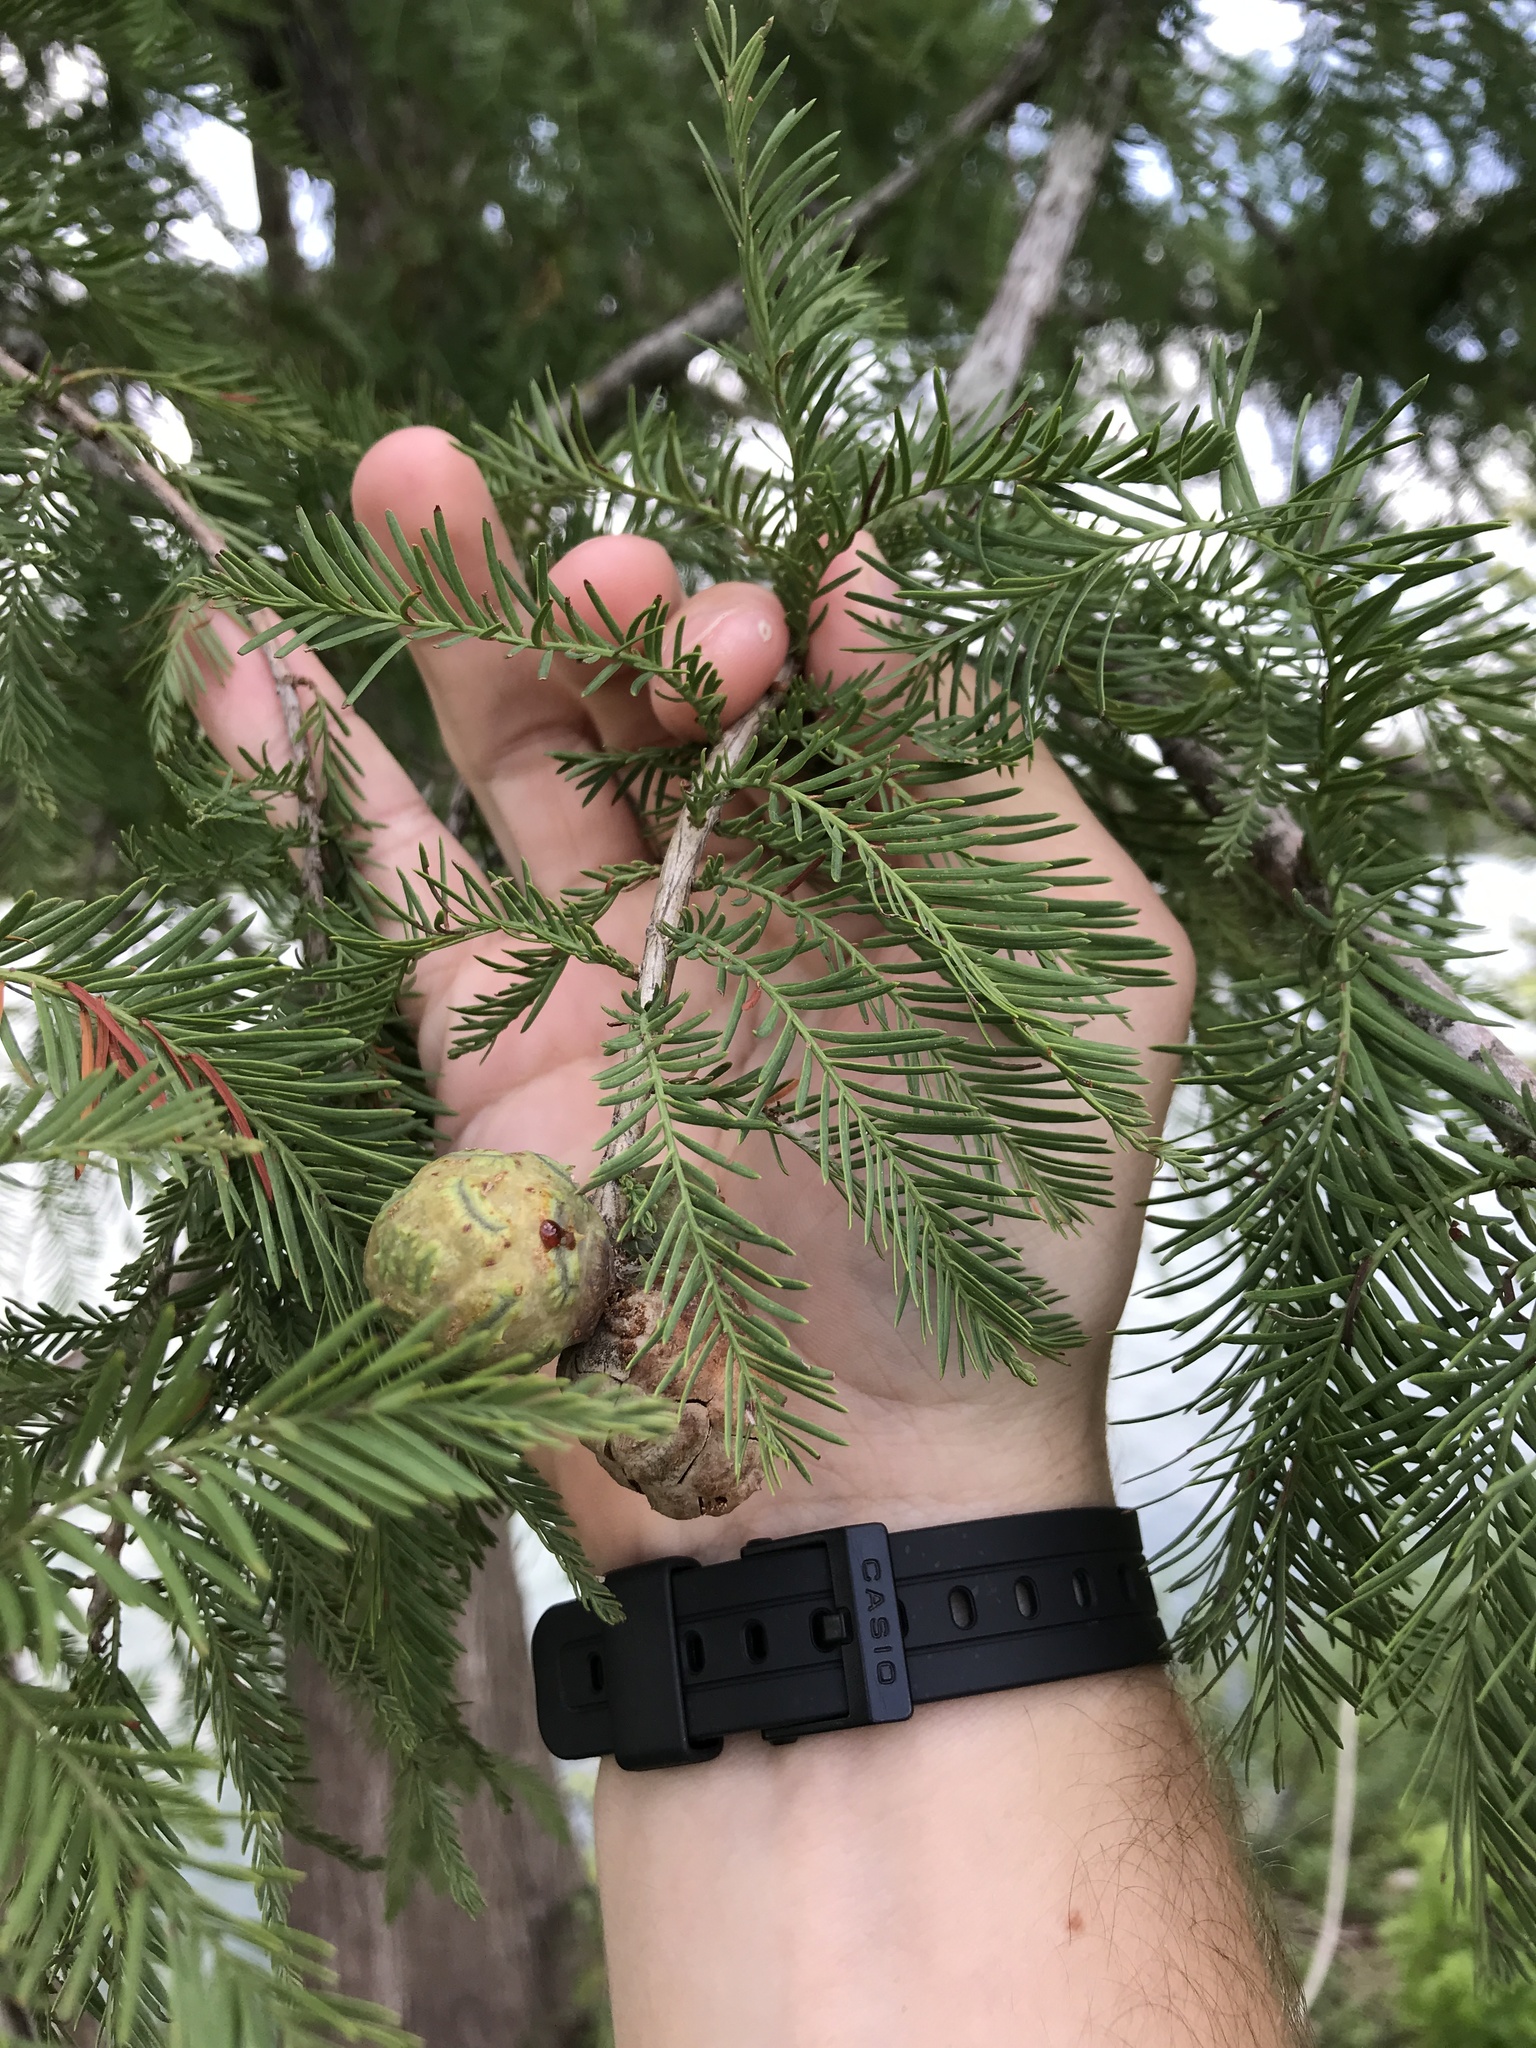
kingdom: Plantae
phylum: Tracheophyta
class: Pinopsida
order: Pinales
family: Cupressaceae
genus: Taxodium
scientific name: Taxodium distichum
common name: Bald cypress
